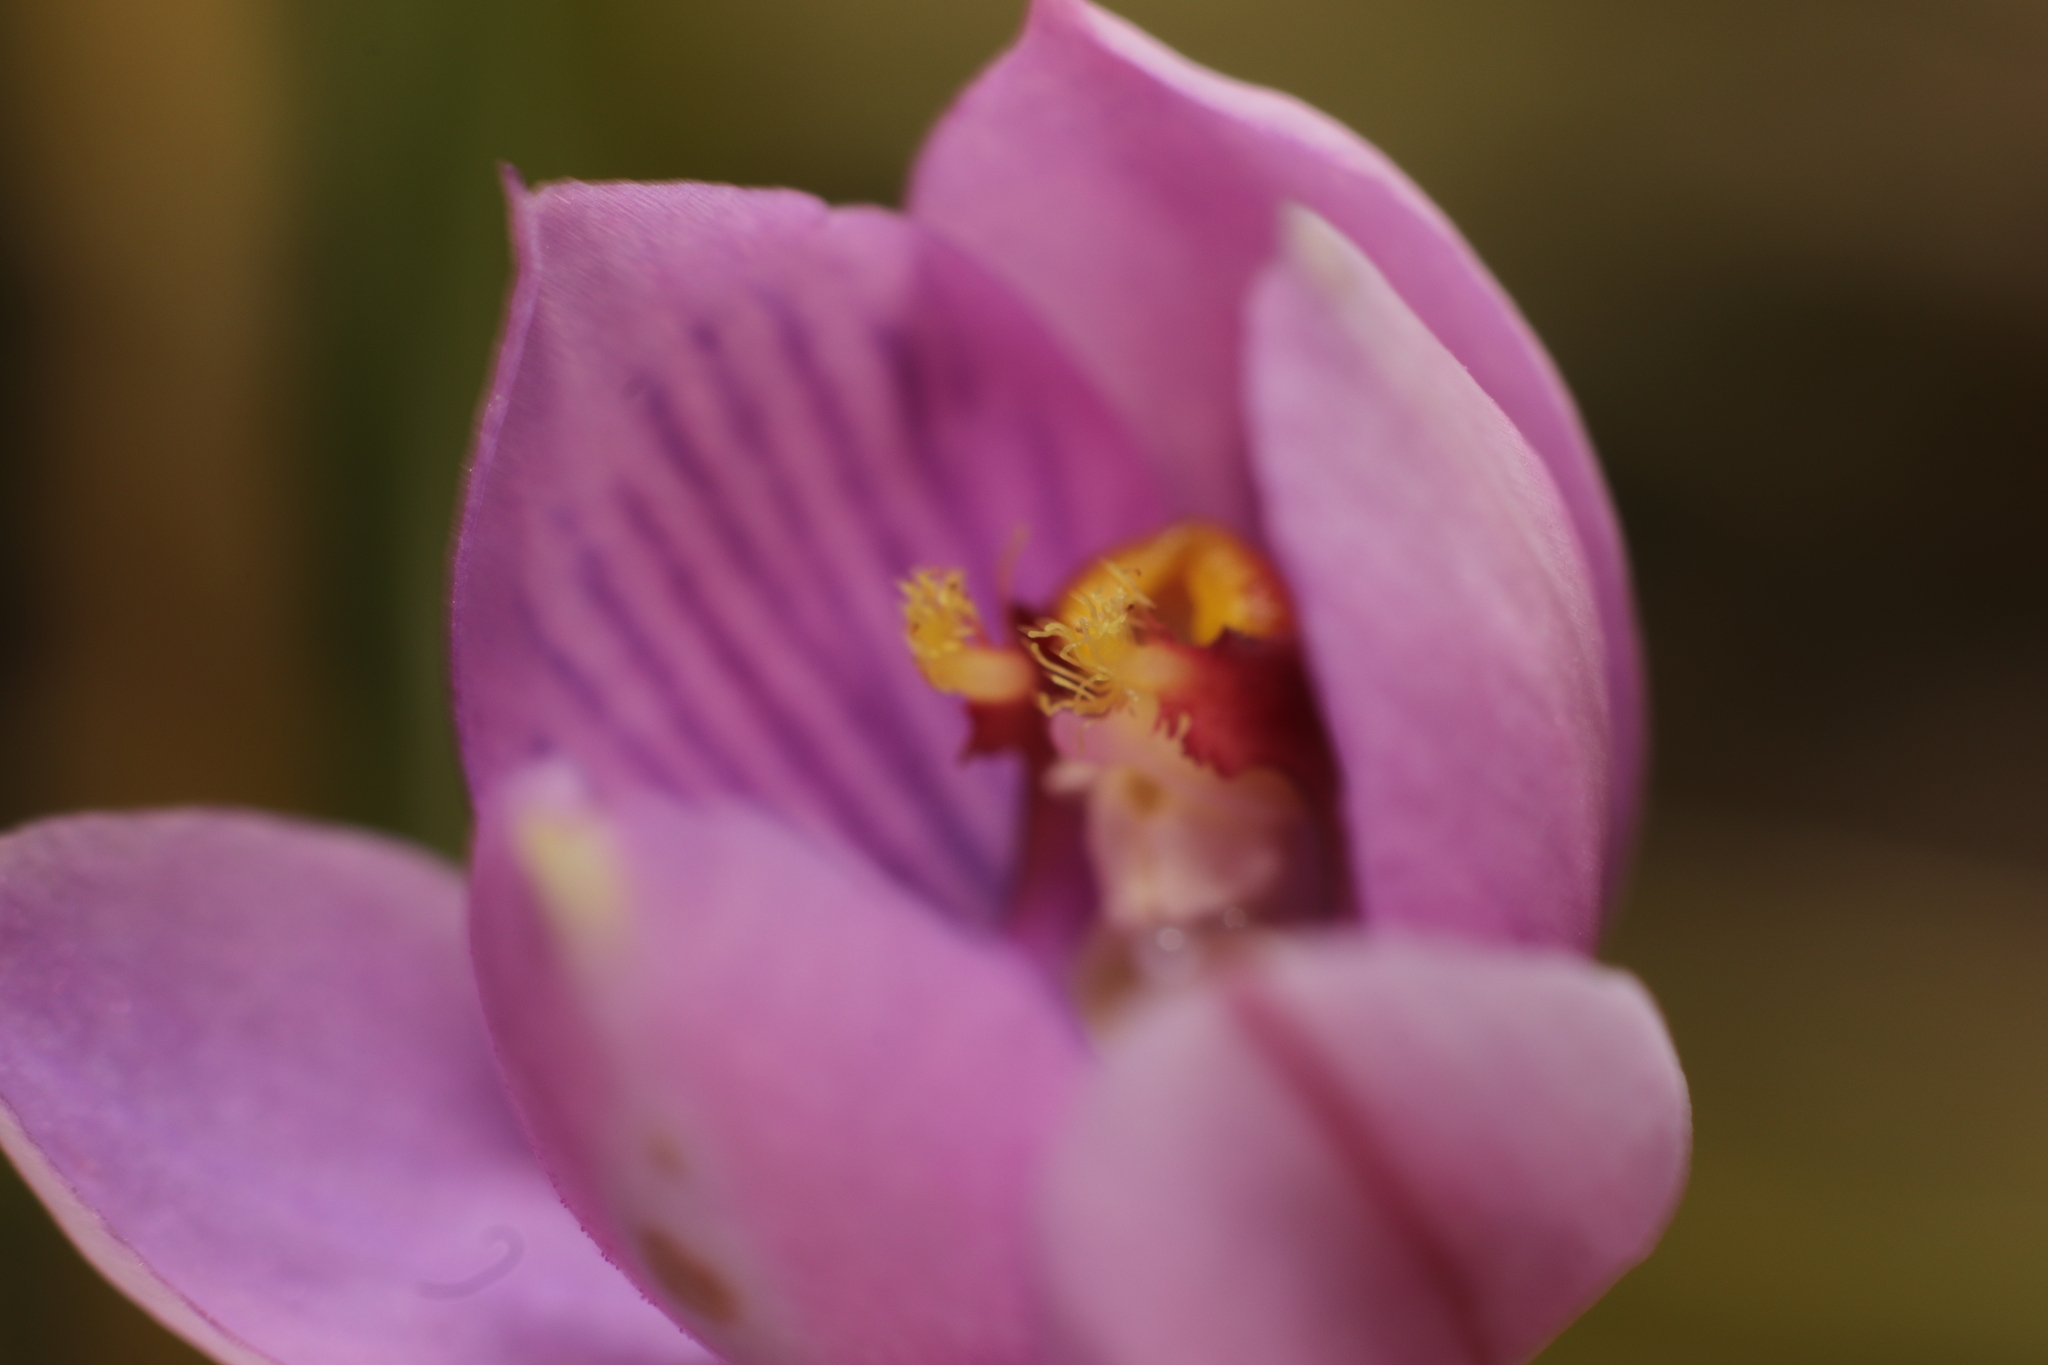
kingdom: Plantae
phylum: Tracheophyta
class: Liliopsida
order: Asparagales
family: Orchidaceae
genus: Thelymitra
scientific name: Thelymitra pulchella
